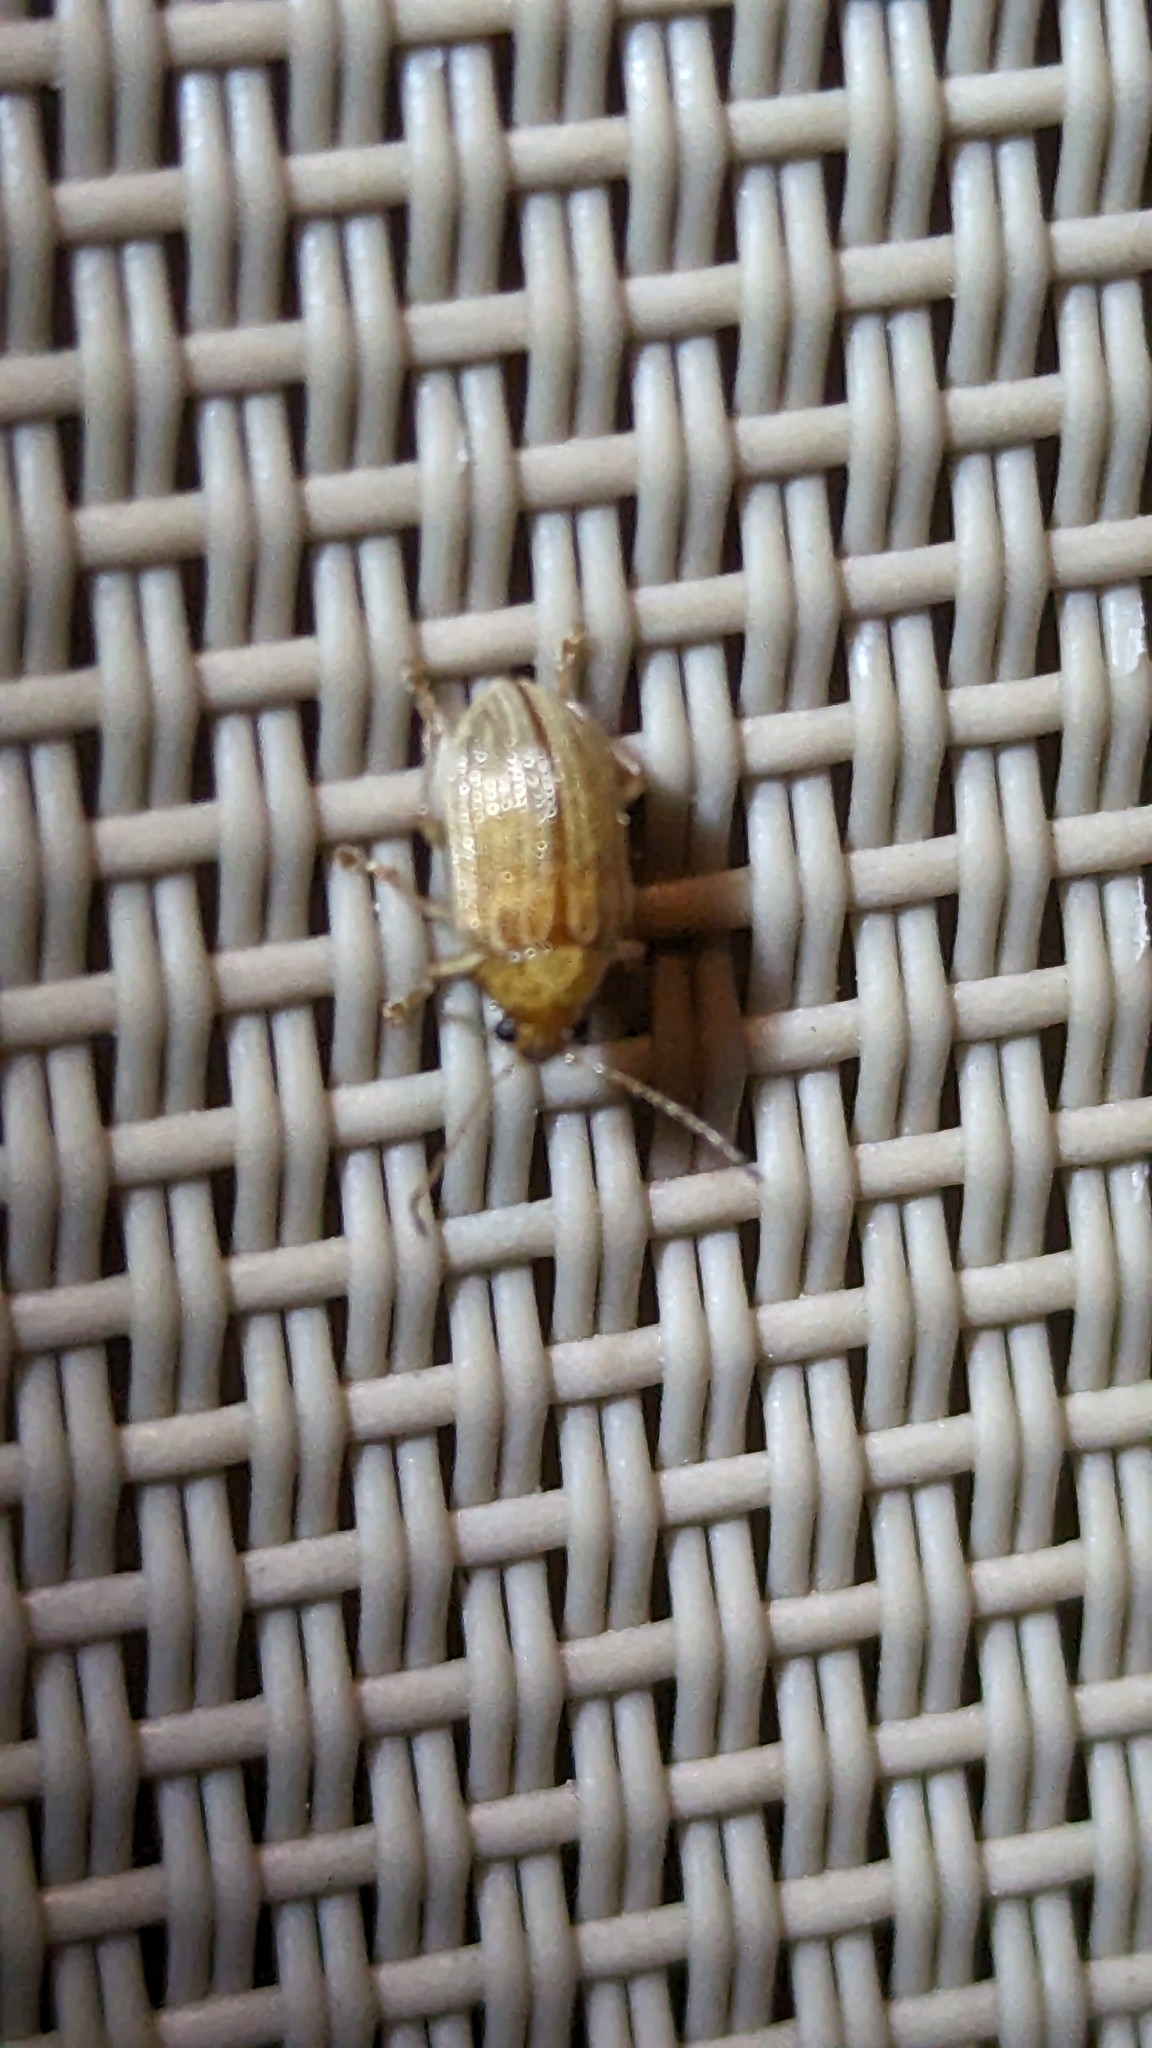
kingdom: Animalia
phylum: Arthropoda
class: Insecta
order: Coleoptera
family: Chrysomelidae
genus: Colaspis
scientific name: Colaspis brunnea
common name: Grape colaspis
